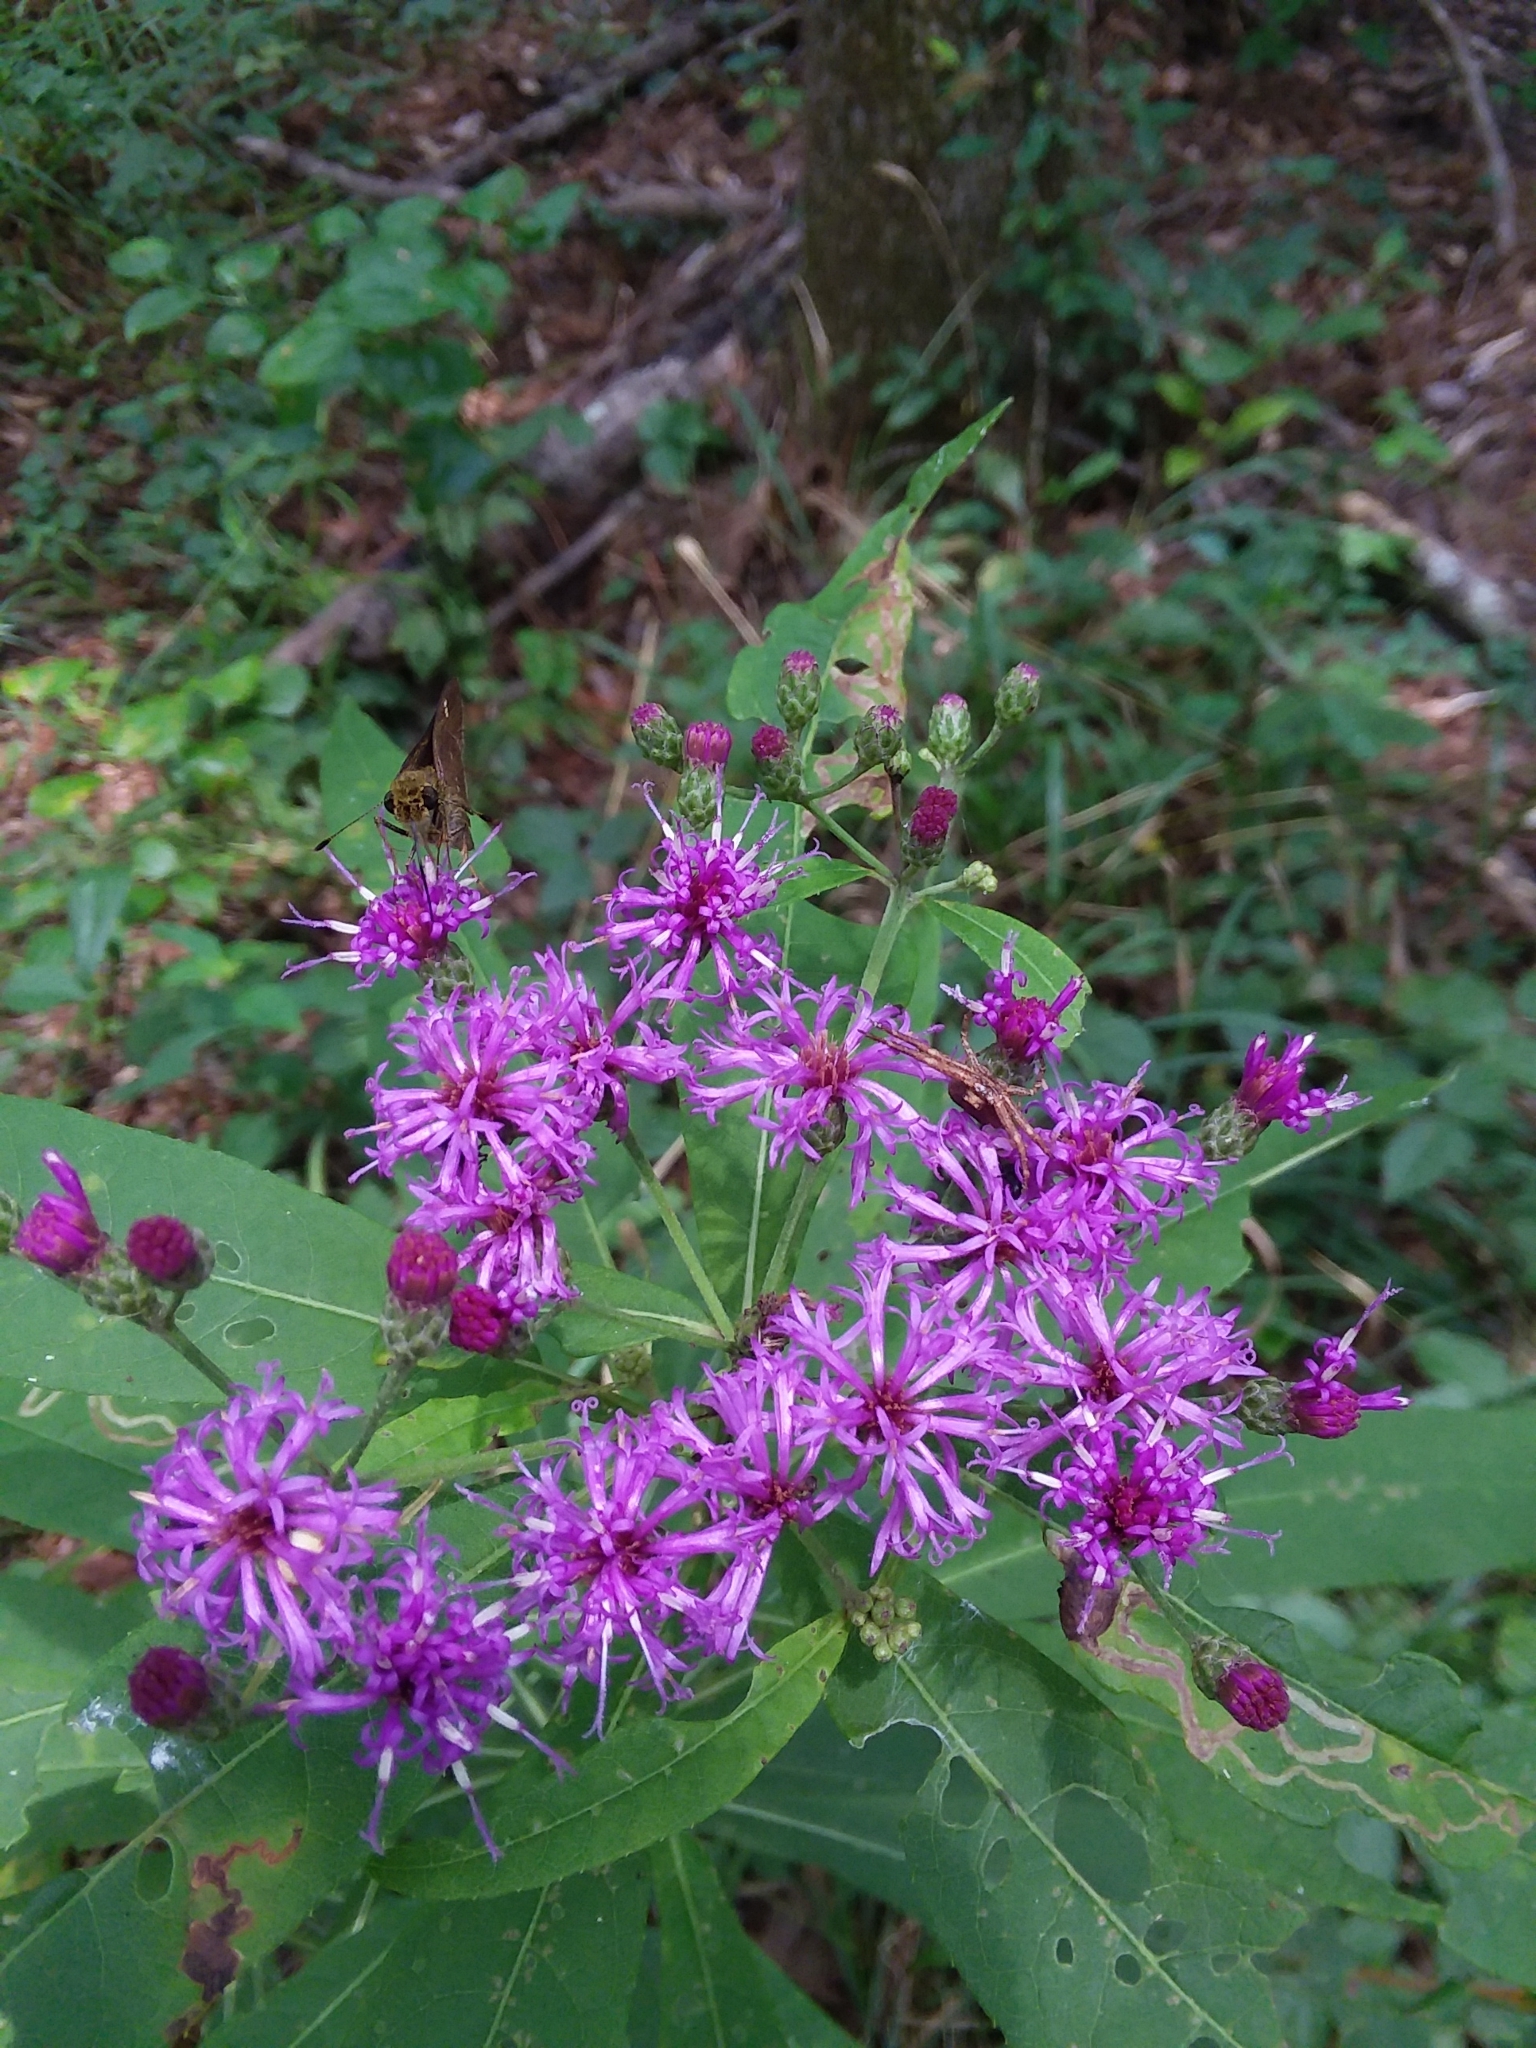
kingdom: Plantae
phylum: Tracheophyta
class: Magnoliopsida
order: Asterales
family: Asteraceae
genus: Vernonia
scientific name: Vernonia gigantea
